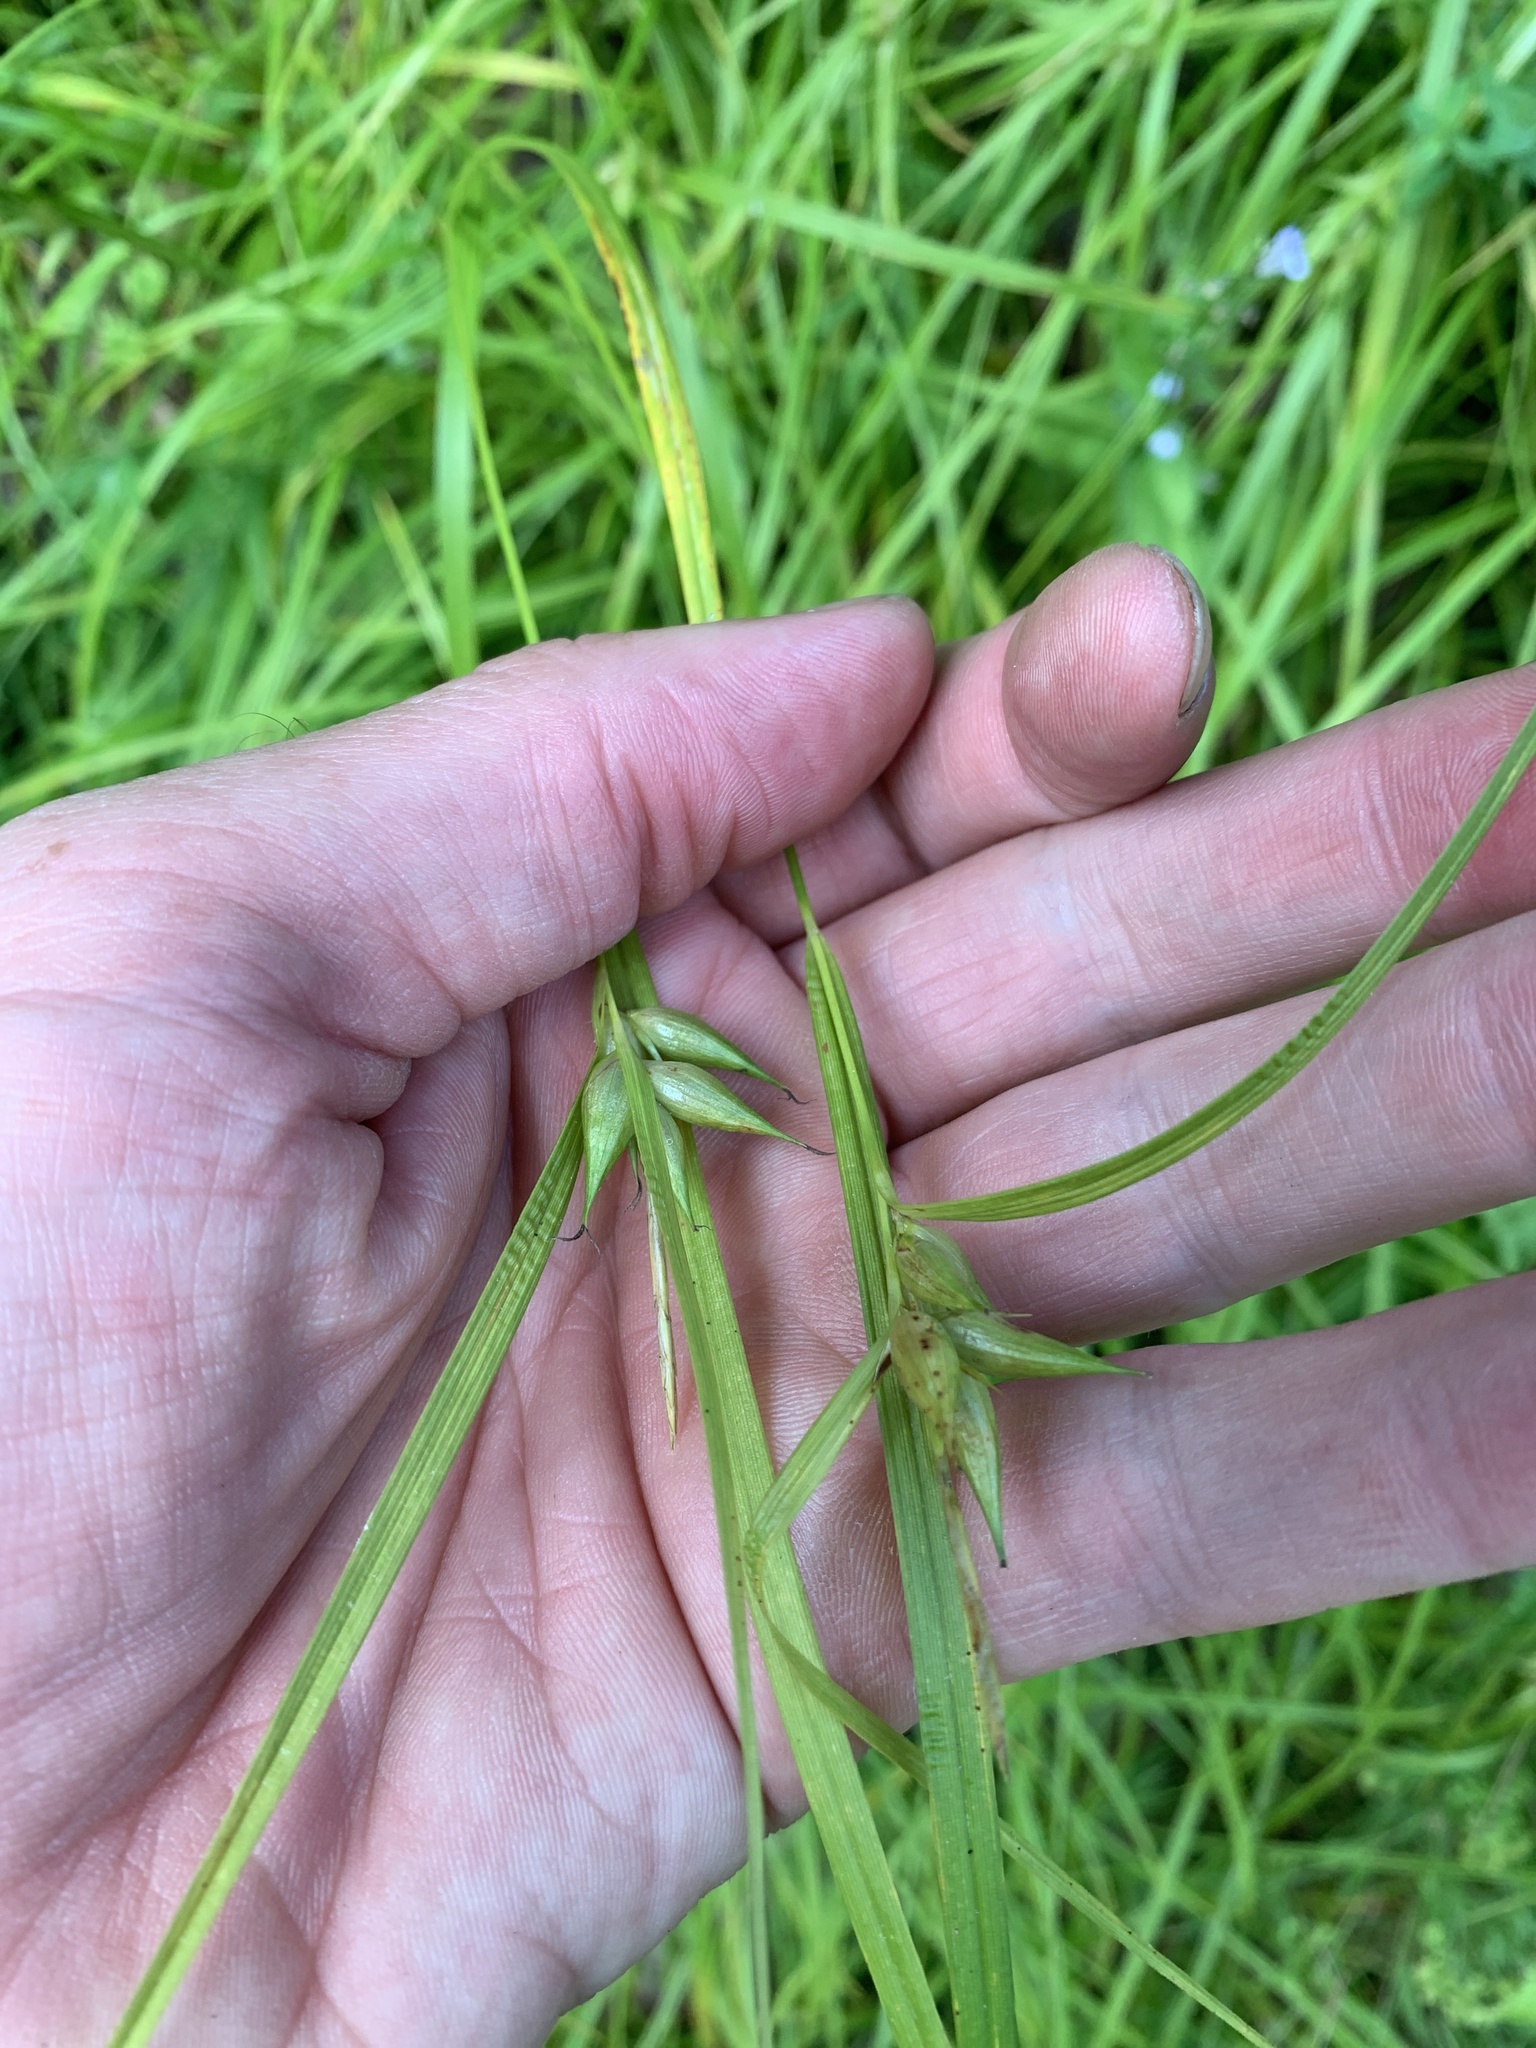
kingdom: Plantae
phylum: Tracheophyta
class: Liliopsida
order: Poales
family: Cyperaceae
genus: Carex
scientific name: Carex intumescens
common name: Greater bladder sedge
